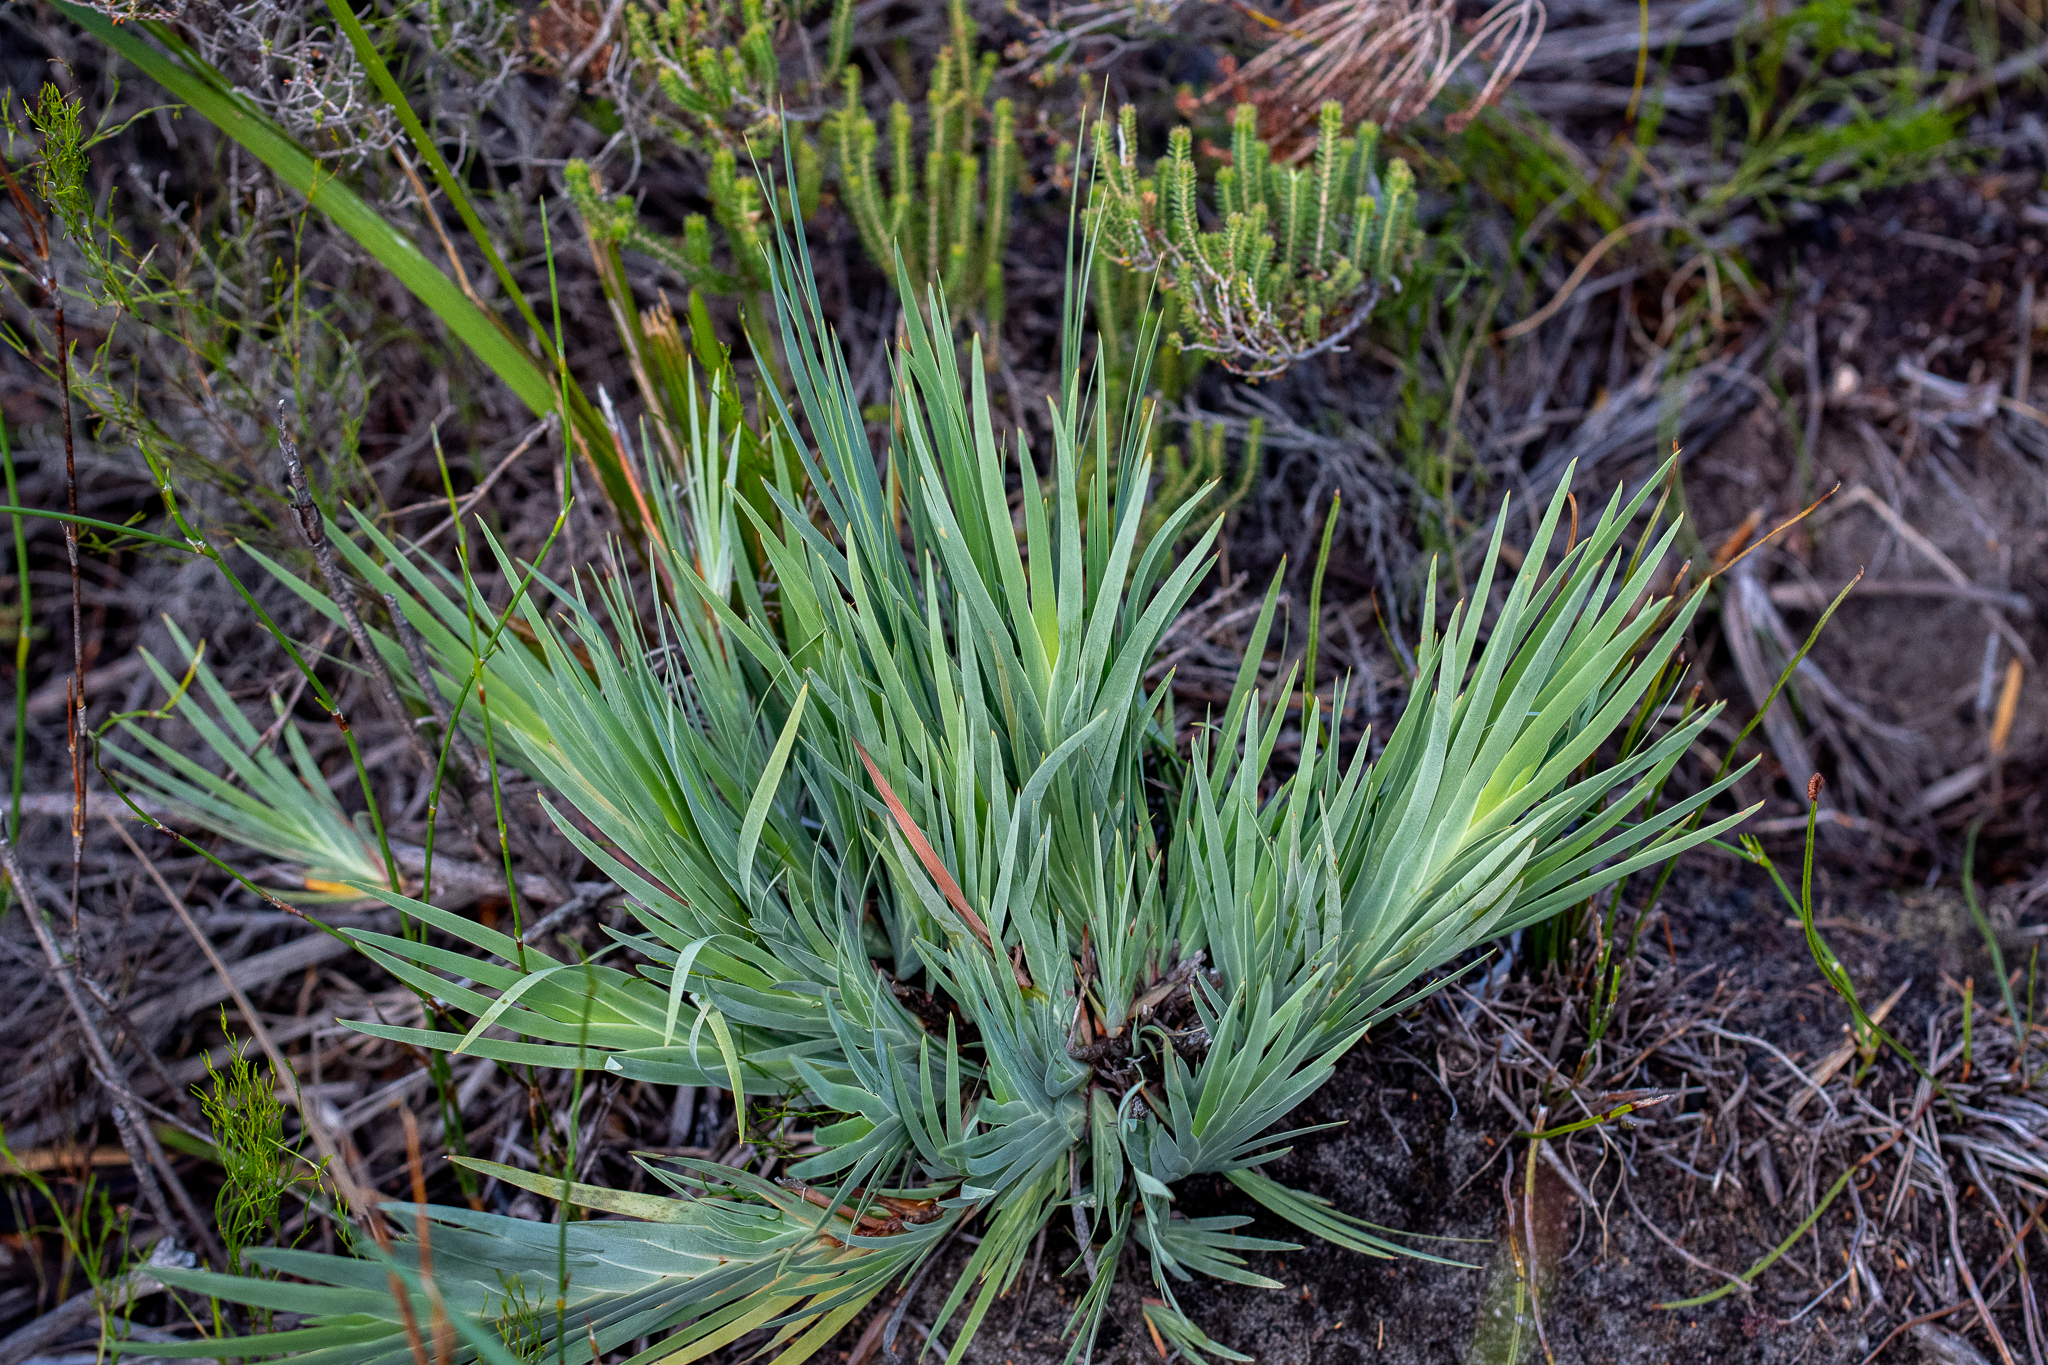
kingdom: Plantae
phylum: Tracheophyta
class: Liliopsida
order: Asparagales
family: Iridaceae
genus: Nivenia
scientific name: Nivenia stokoei
